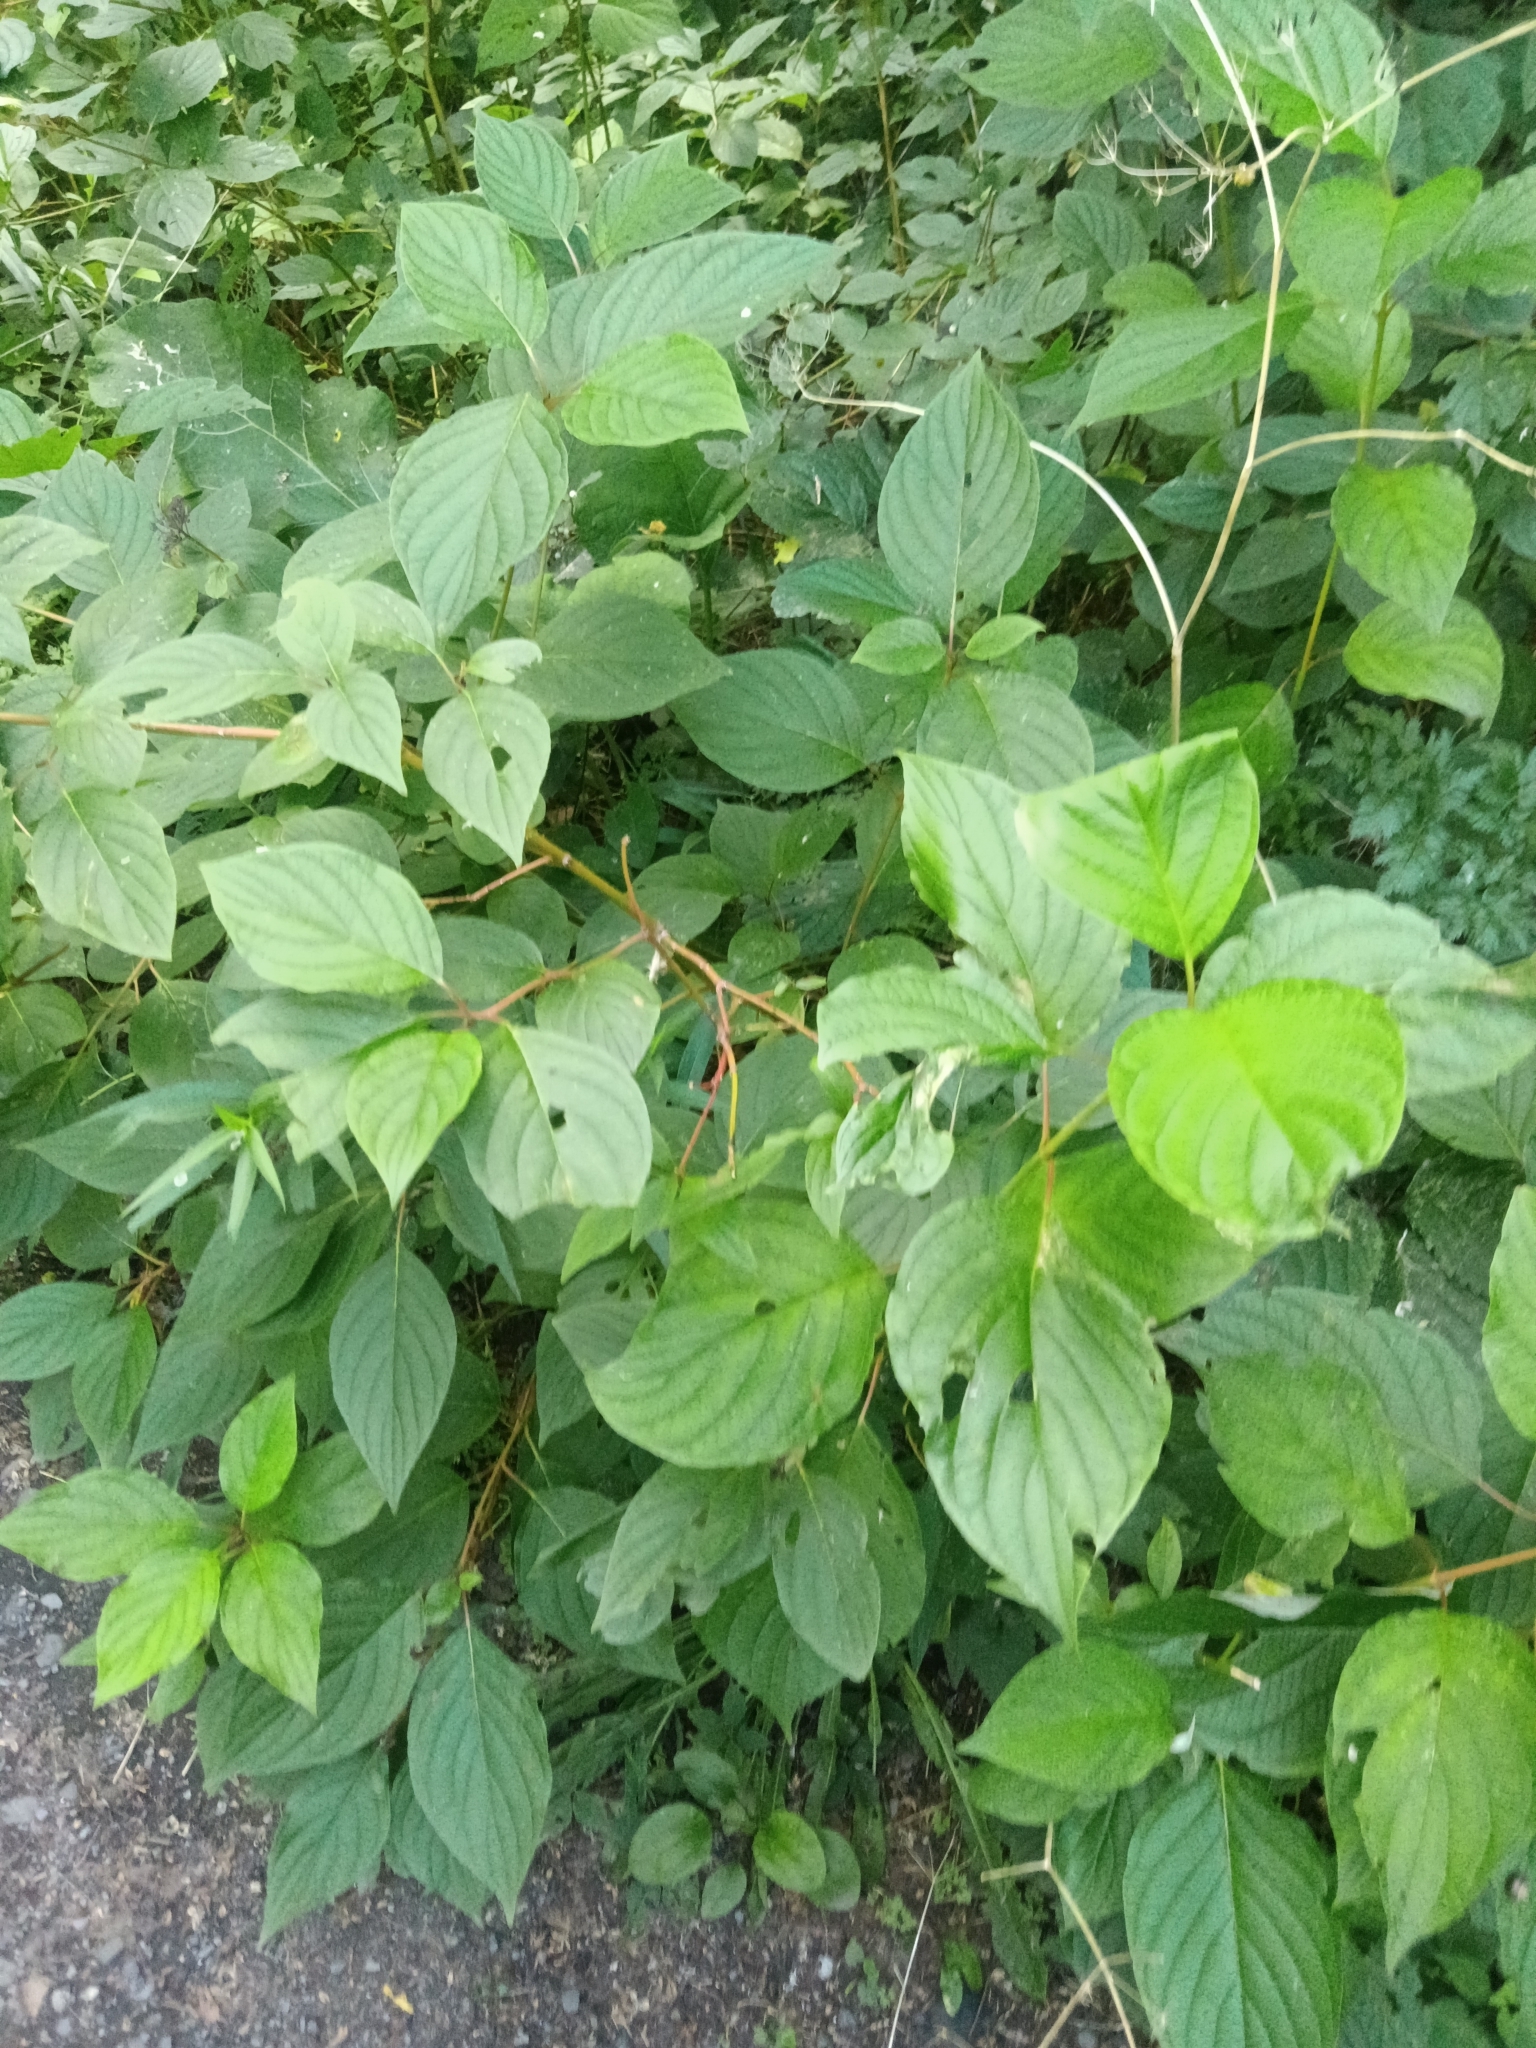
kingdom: Plantae
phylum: Tracheophyta
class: Magnoliopsida
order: Cornales
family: Cornaceae
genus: Cornus
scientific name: Cornus sericea
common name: Red-osier dogwood
